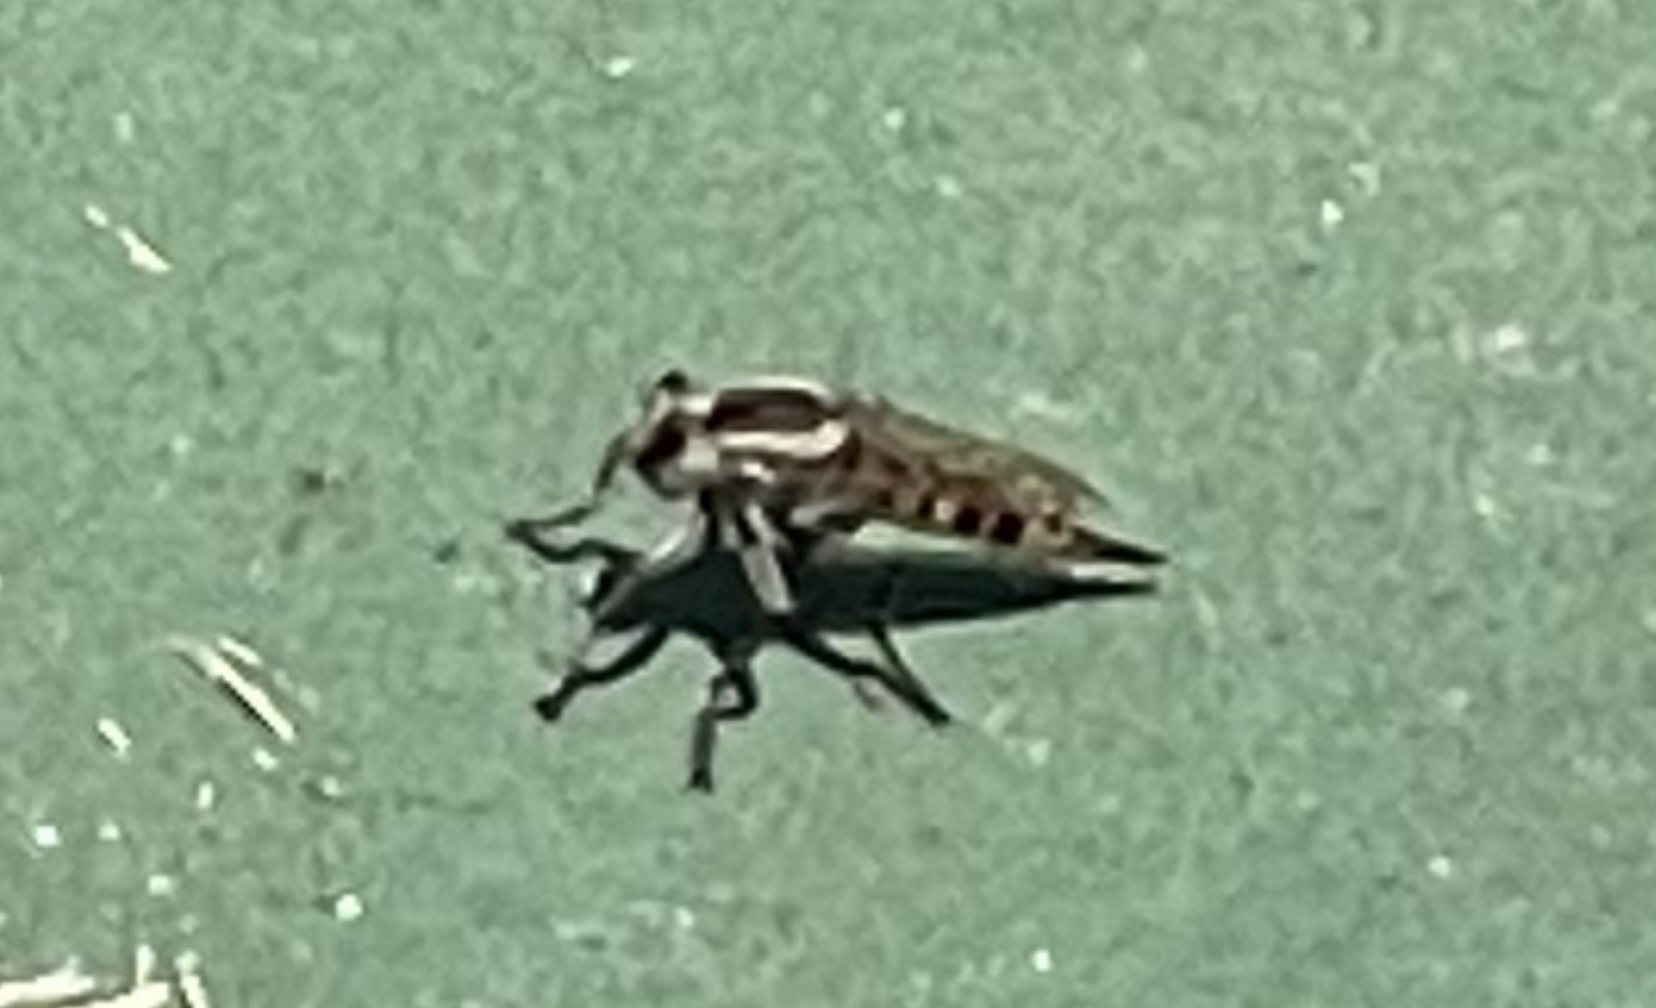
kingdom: Animalia
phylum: Arthropoda
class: Insecta
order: Diptera
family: Asilidae
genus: Triorla
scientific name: Triorla interrupta
